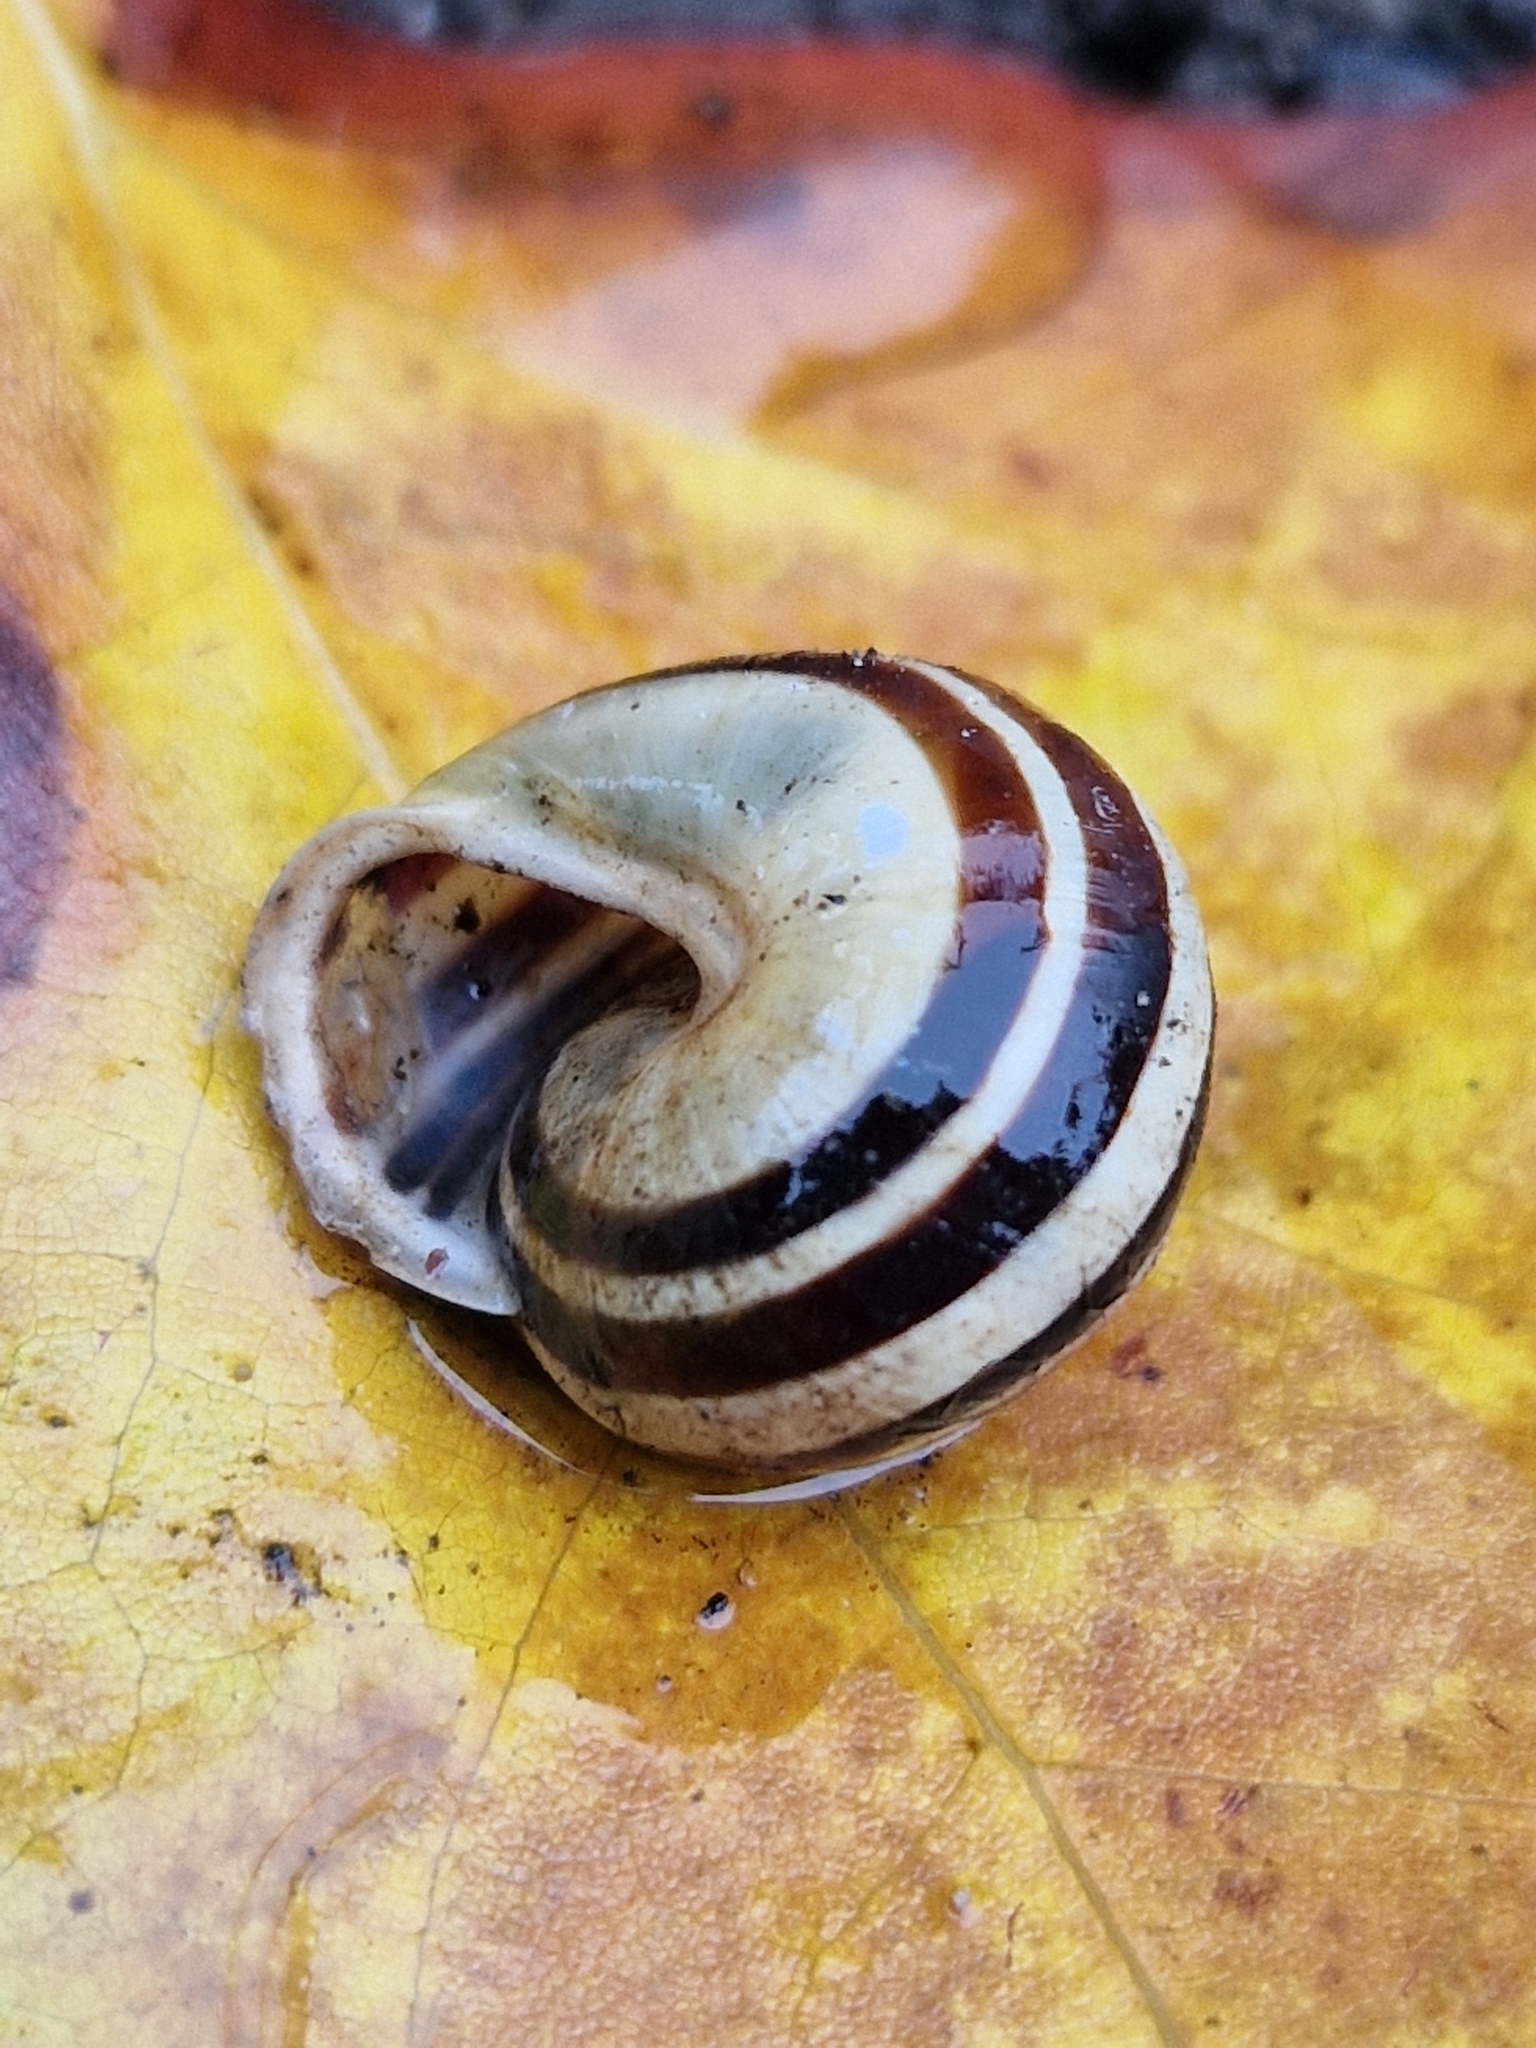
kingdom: Animalia
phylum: Mollusca
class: Gastropoda
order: Stylommatophora
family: Helicidae
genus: Cepaea
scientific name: Cepaea hortensis
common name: White-lip gardensnail
